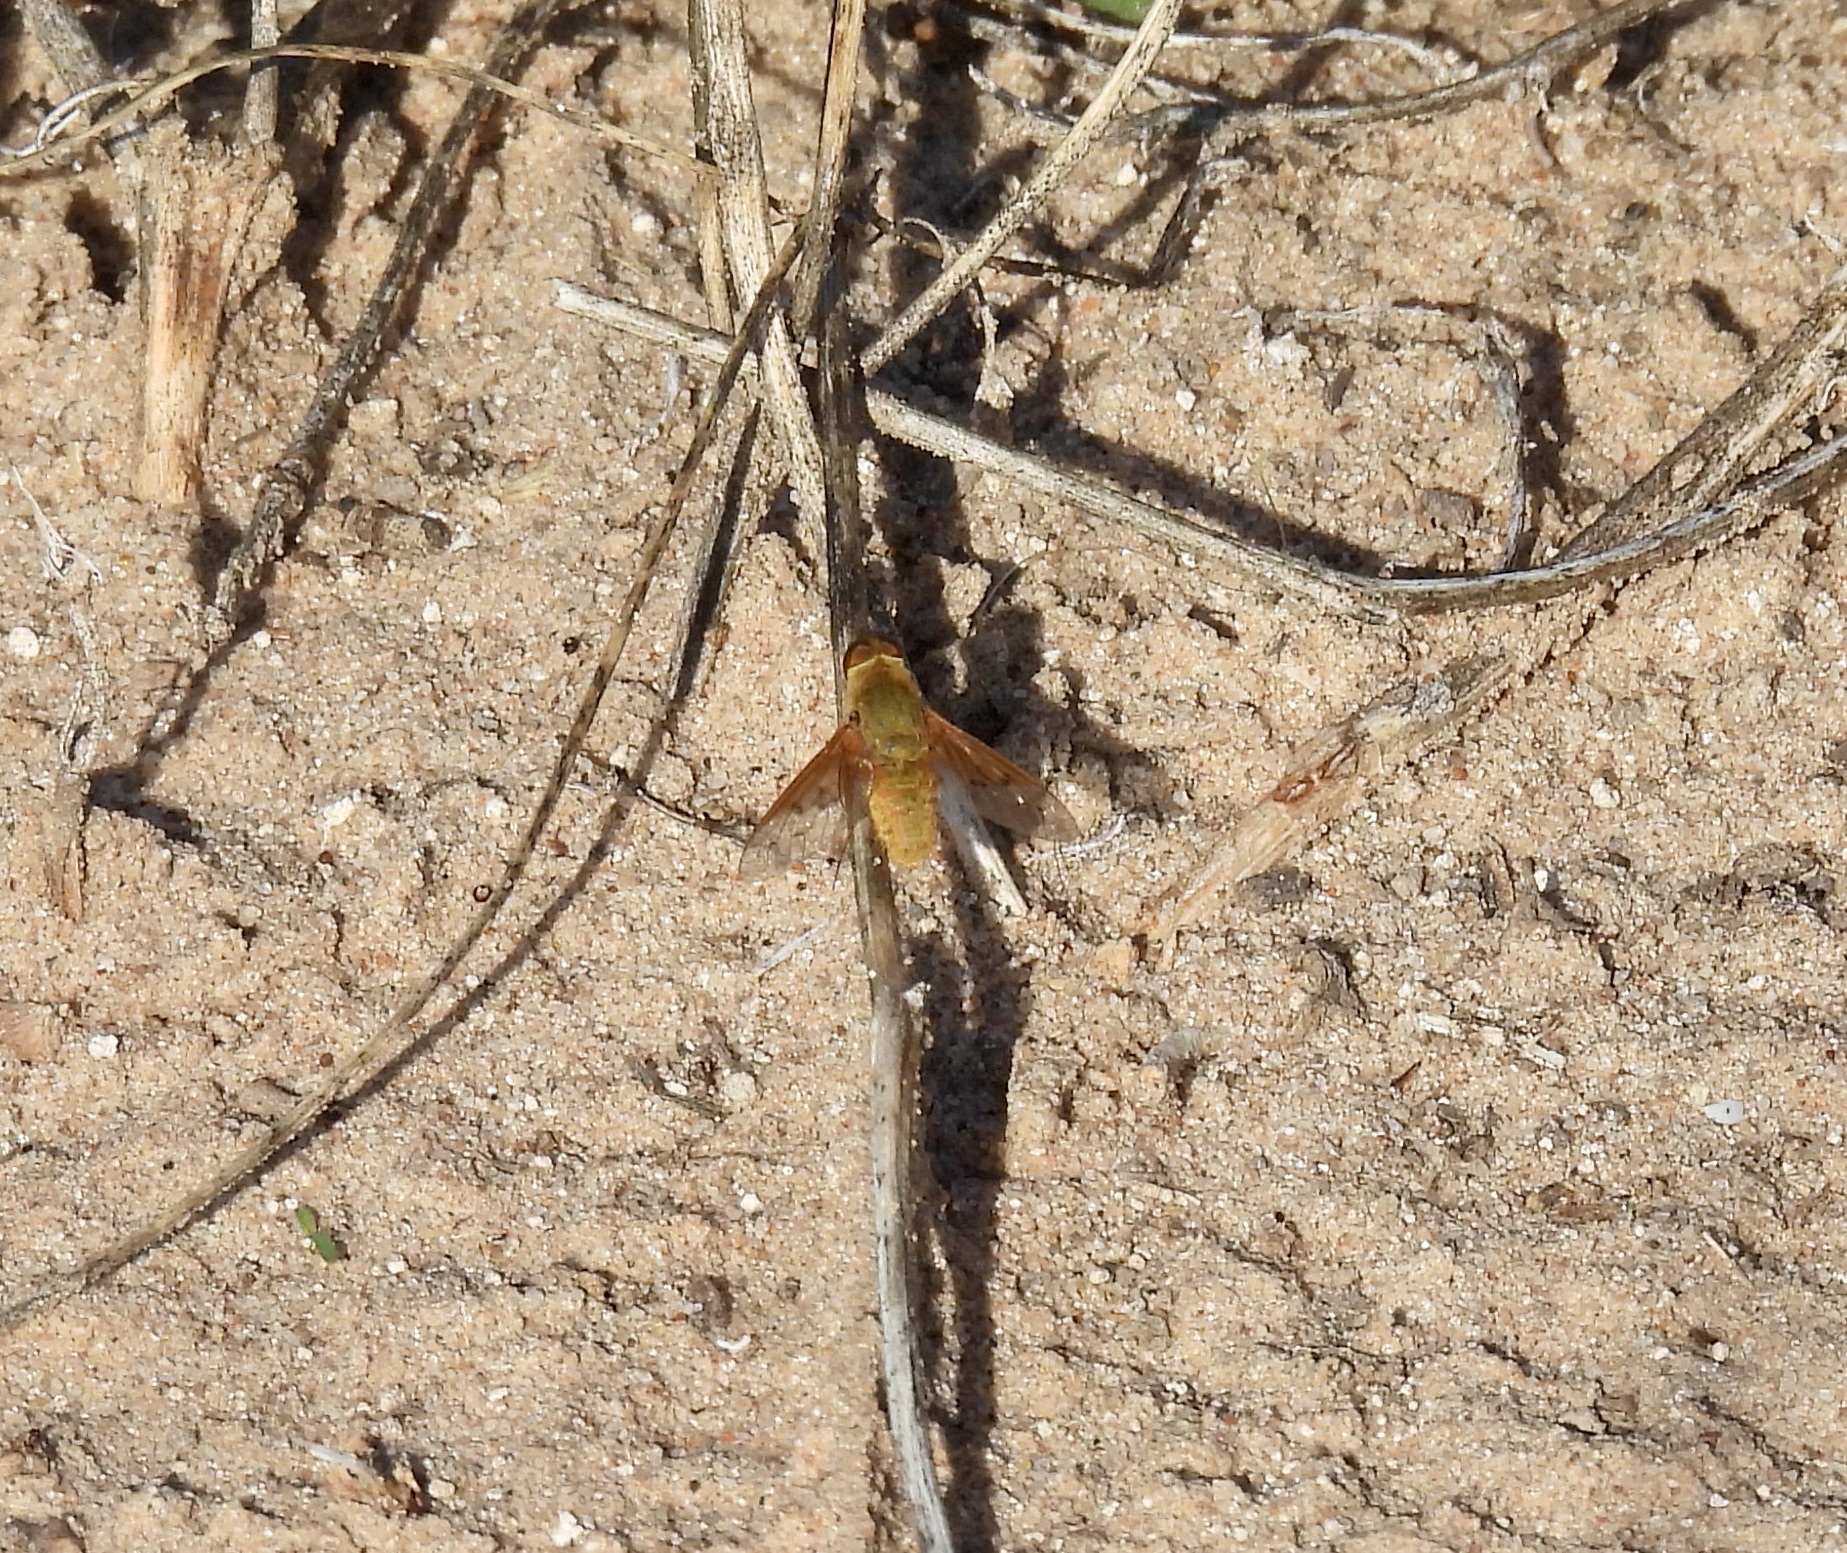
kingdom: Animalia
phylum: Arthropoda
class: Insecta
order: Diptera
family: Bombyliidae
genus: Chrysanthrax
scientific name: Chrysanthrax edititius
